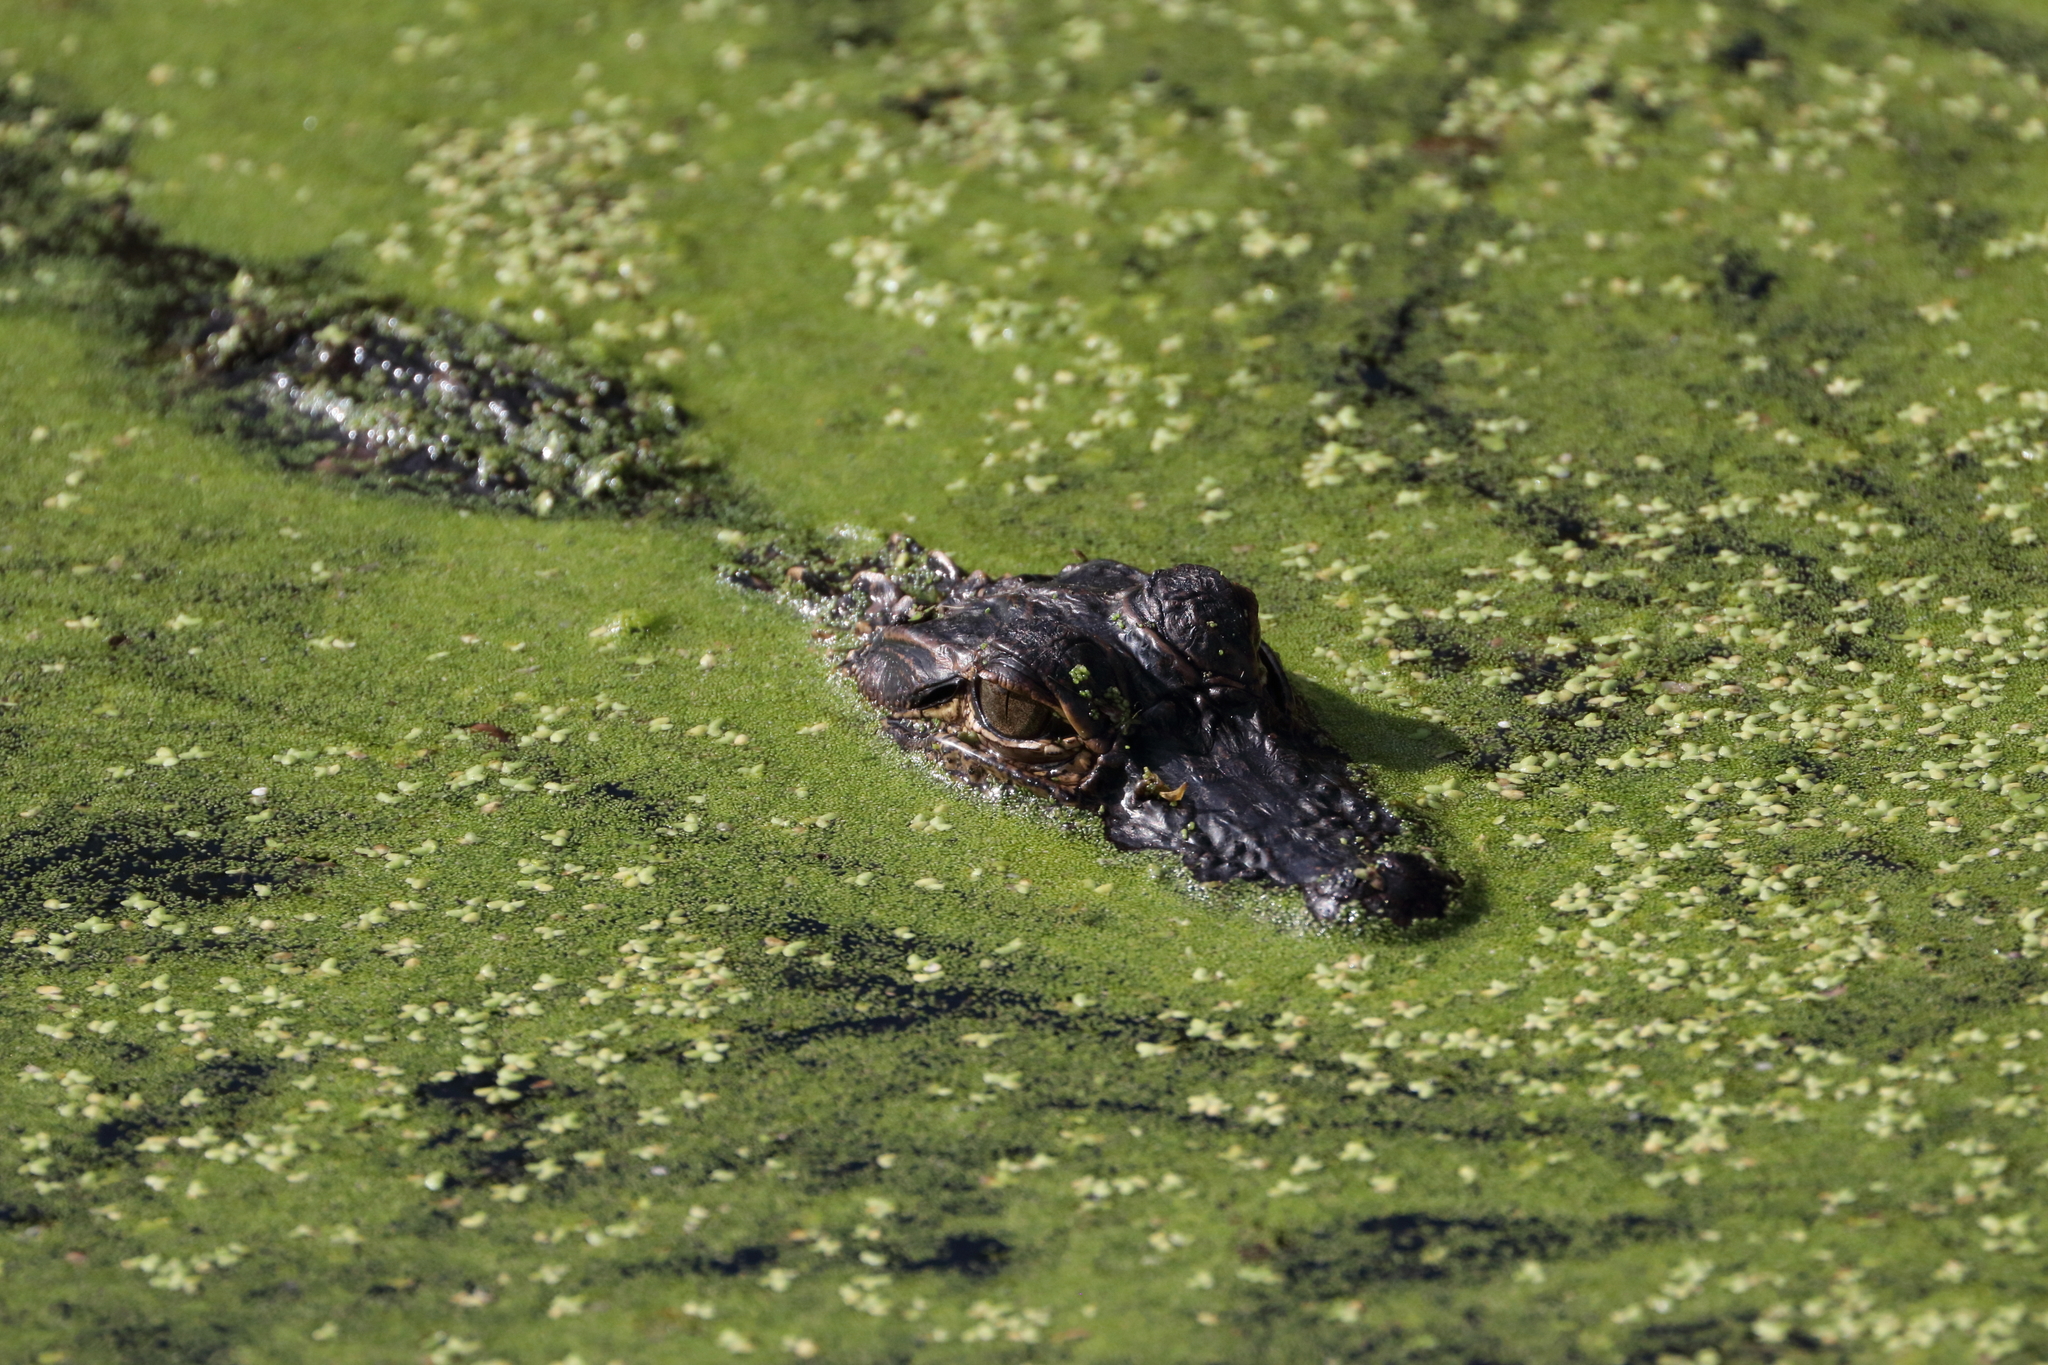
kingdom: Animalia
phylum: Chordata
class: Crocodylia
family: Alligatoridae
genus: Alligator
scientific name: Alligator mississippiensis
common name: American alligator
